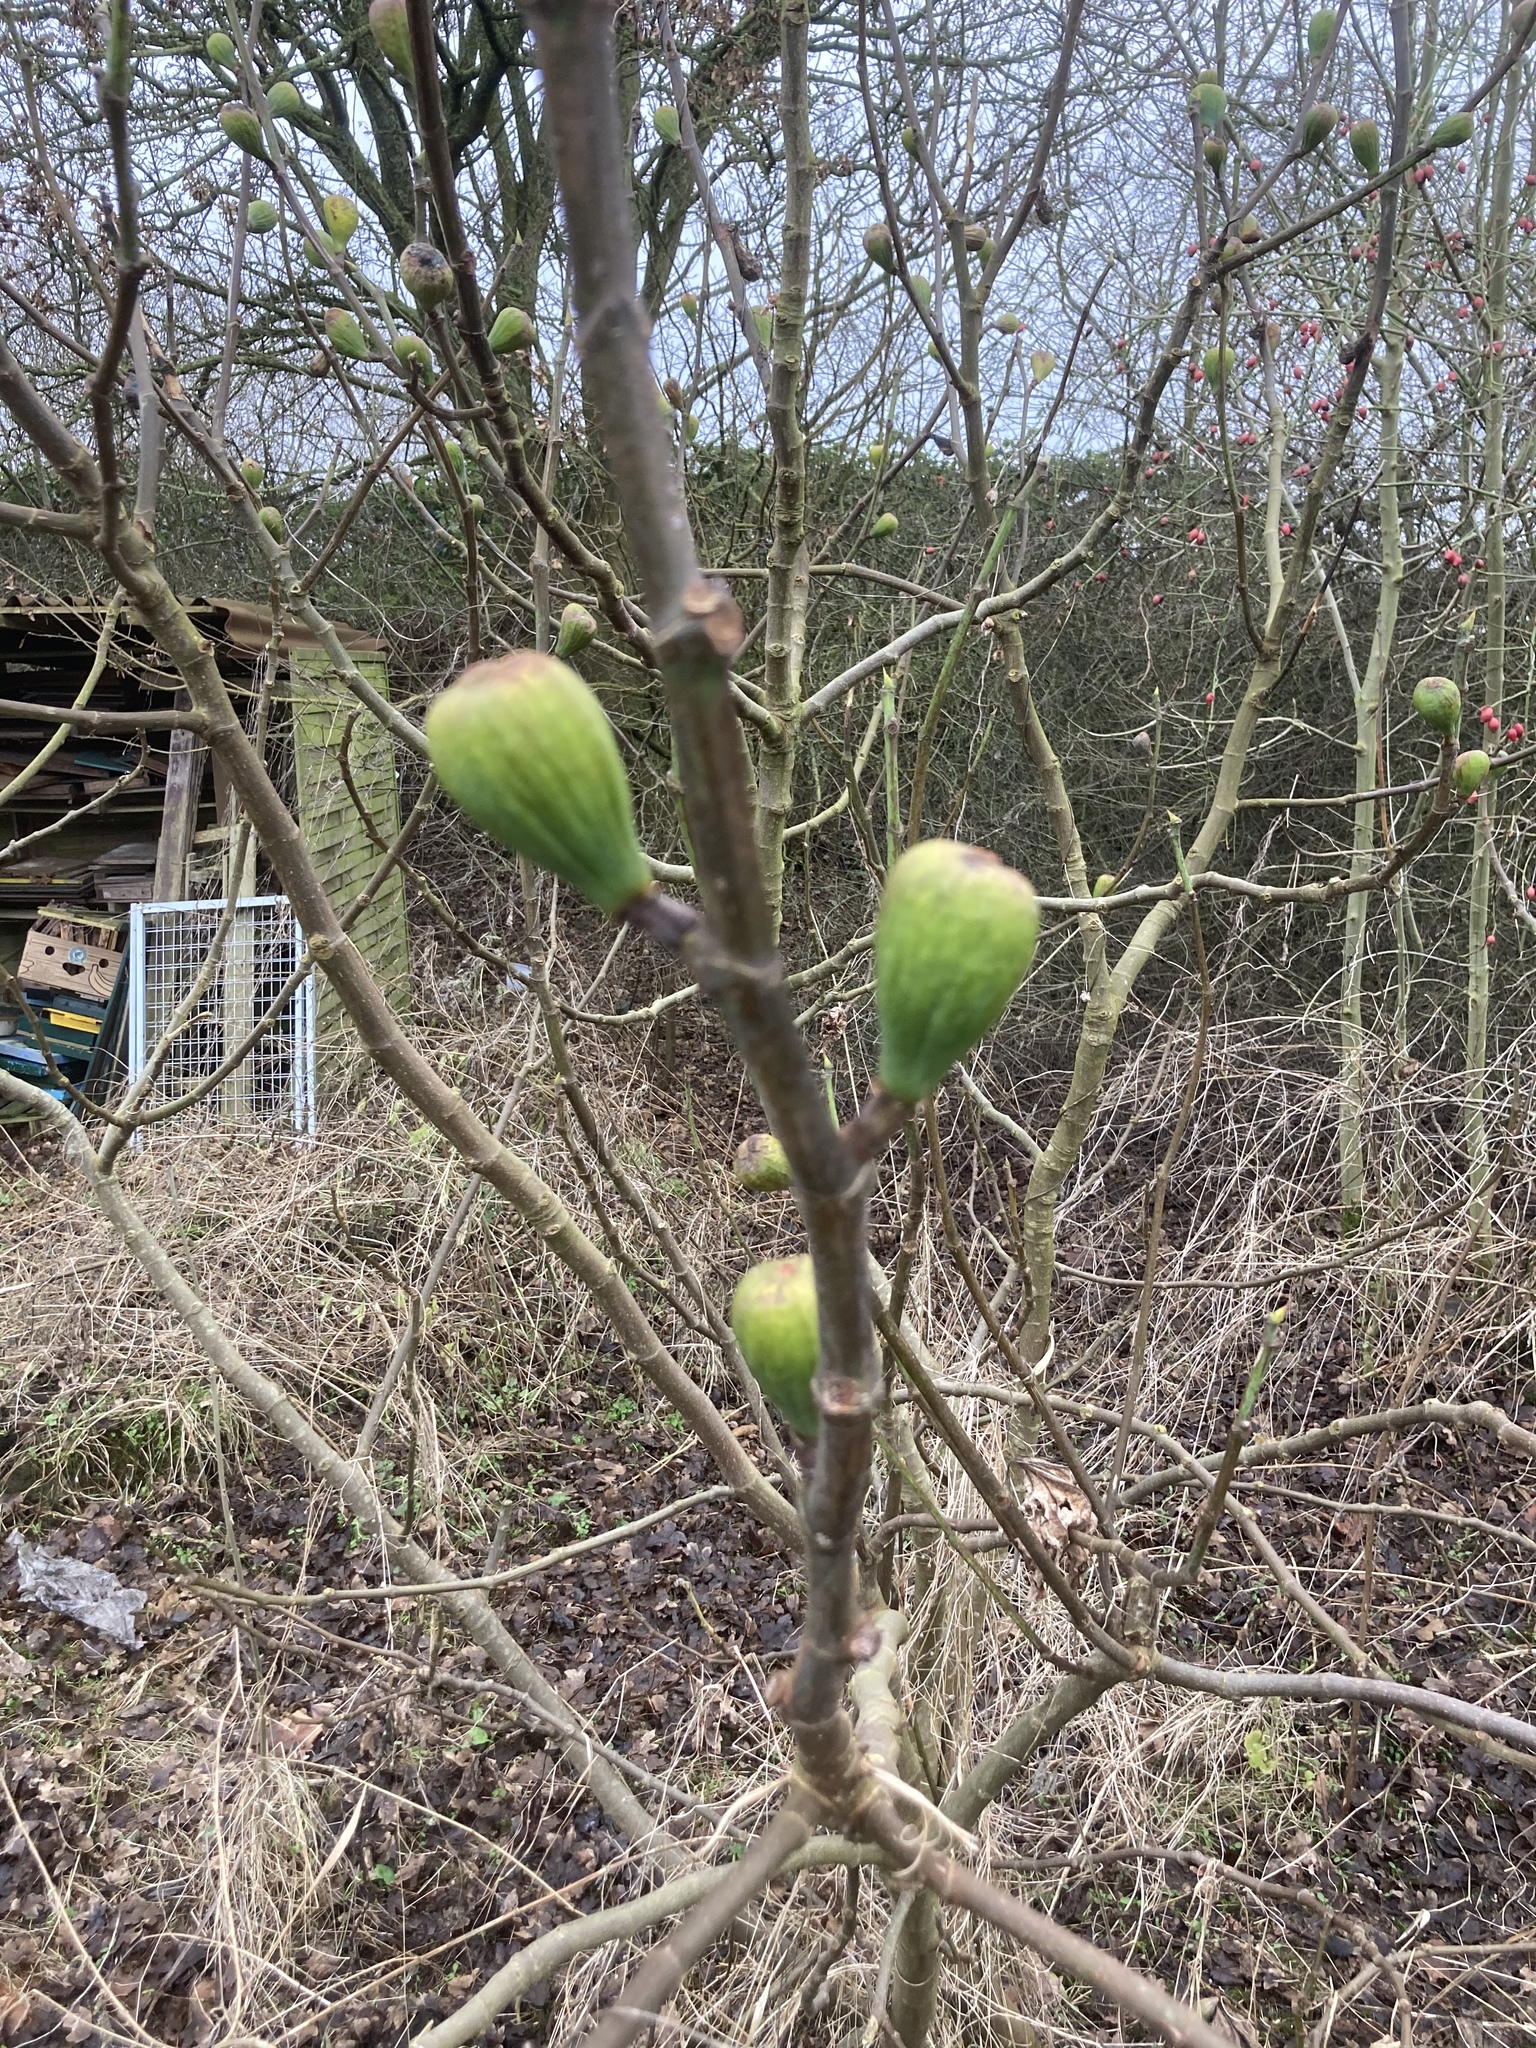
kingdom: Plantae
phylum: Tracheophyta
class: Magnoliopsida
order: Rosales
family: Moraceae
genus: Ficus
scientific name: Ficus carica
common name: Fig
